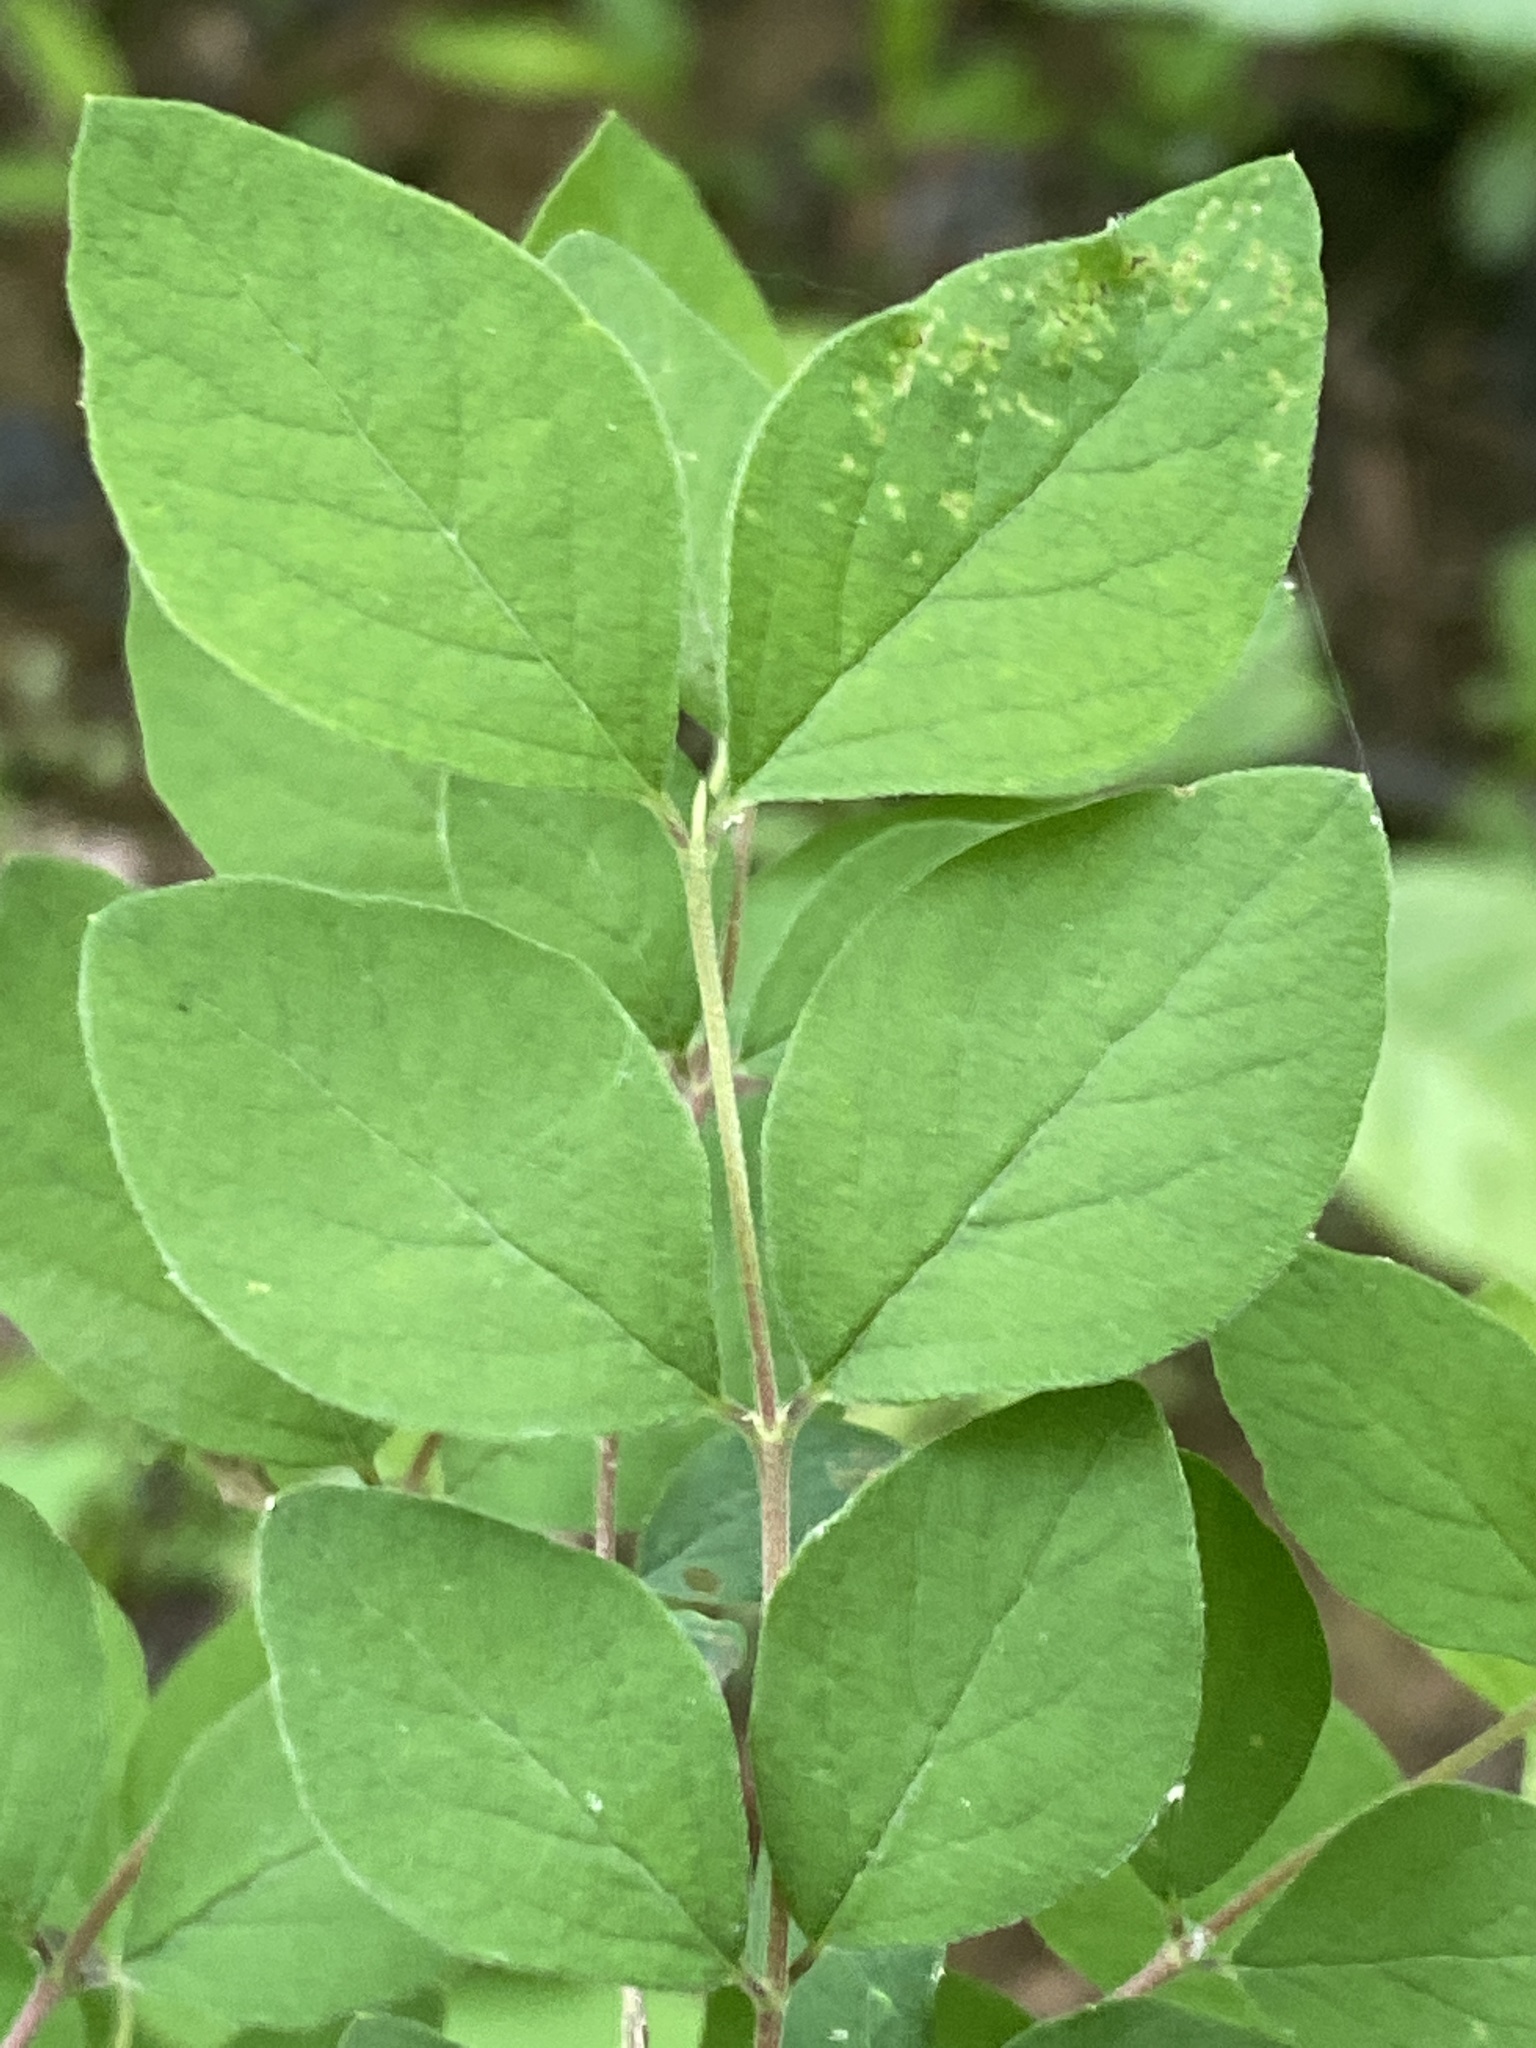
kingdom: Plantae
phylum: Tracheophyta
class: Magnoliopsida
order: Dipsacales
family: Caprifoliaceae
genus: Symphoricarpos
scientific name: Symphoricarpos orbiculatus
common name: Coralberry
